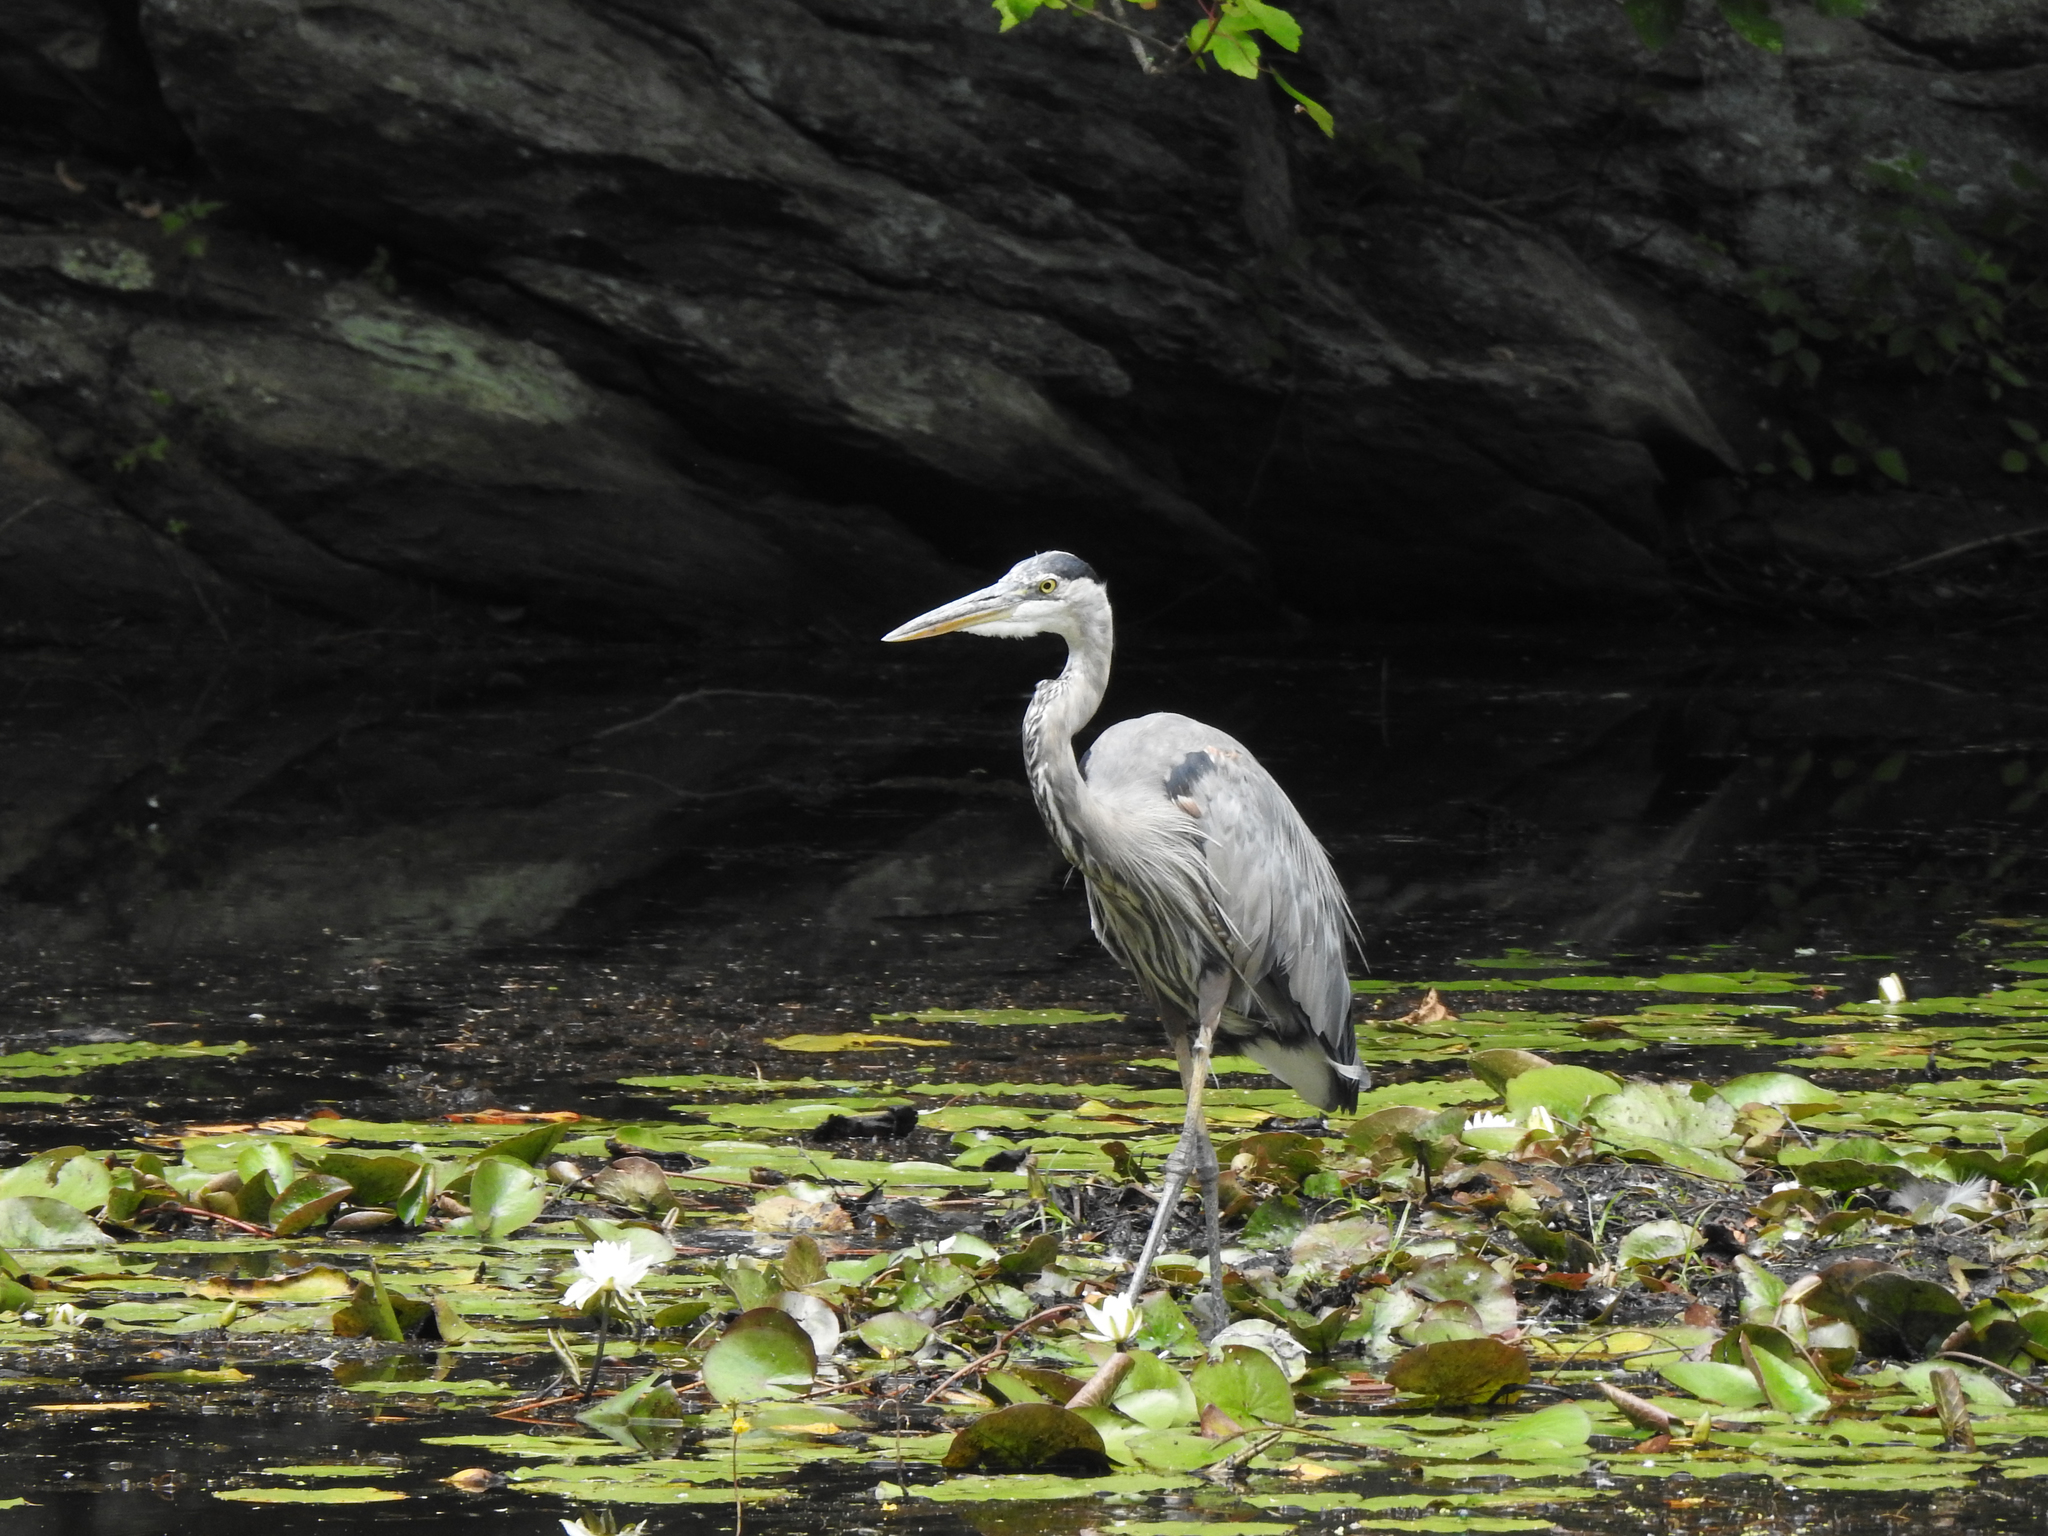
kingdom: Animalia
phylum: Chordata
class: Aves
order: Pelecaniformes
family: Ardeidae
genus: Ardea
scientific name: Ardea herodias
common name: Great blue heron
